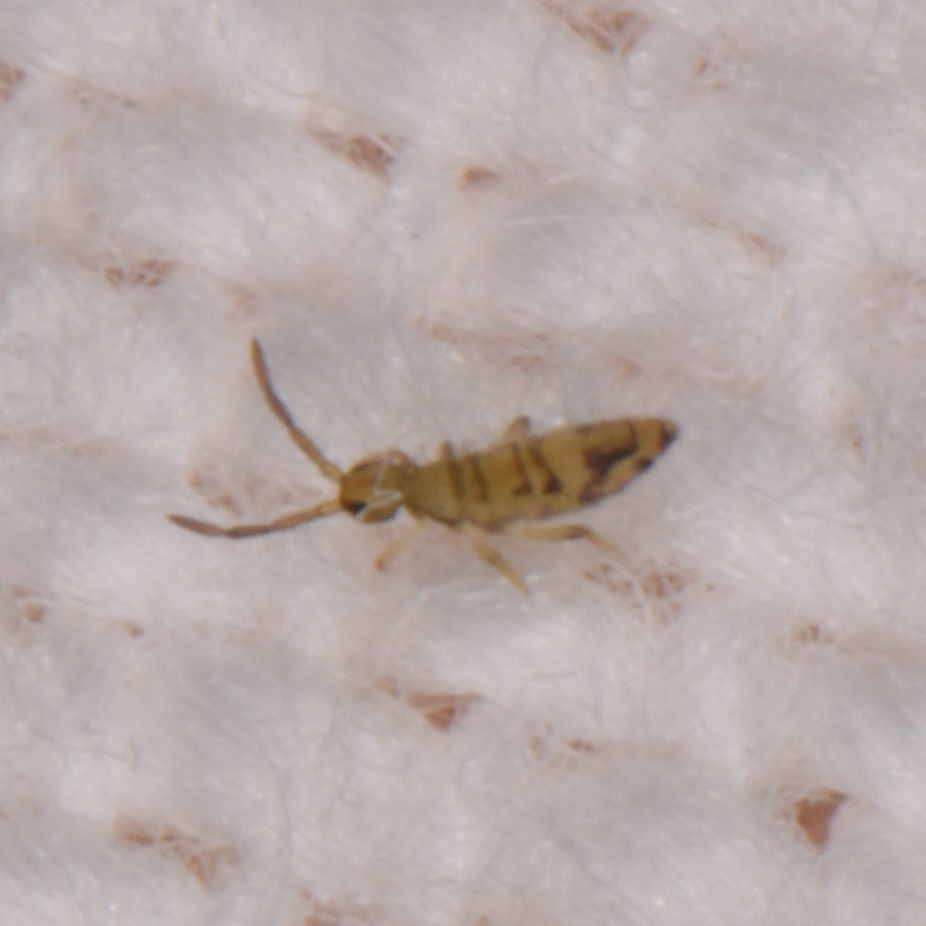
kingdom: Animalia
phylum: Arthropoda
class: Collembola
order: Entomobryomorpha
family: Entomobryidae
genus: Entomobrya
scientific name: Entomobrya nivalis
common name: Cosmopolitan springtail
